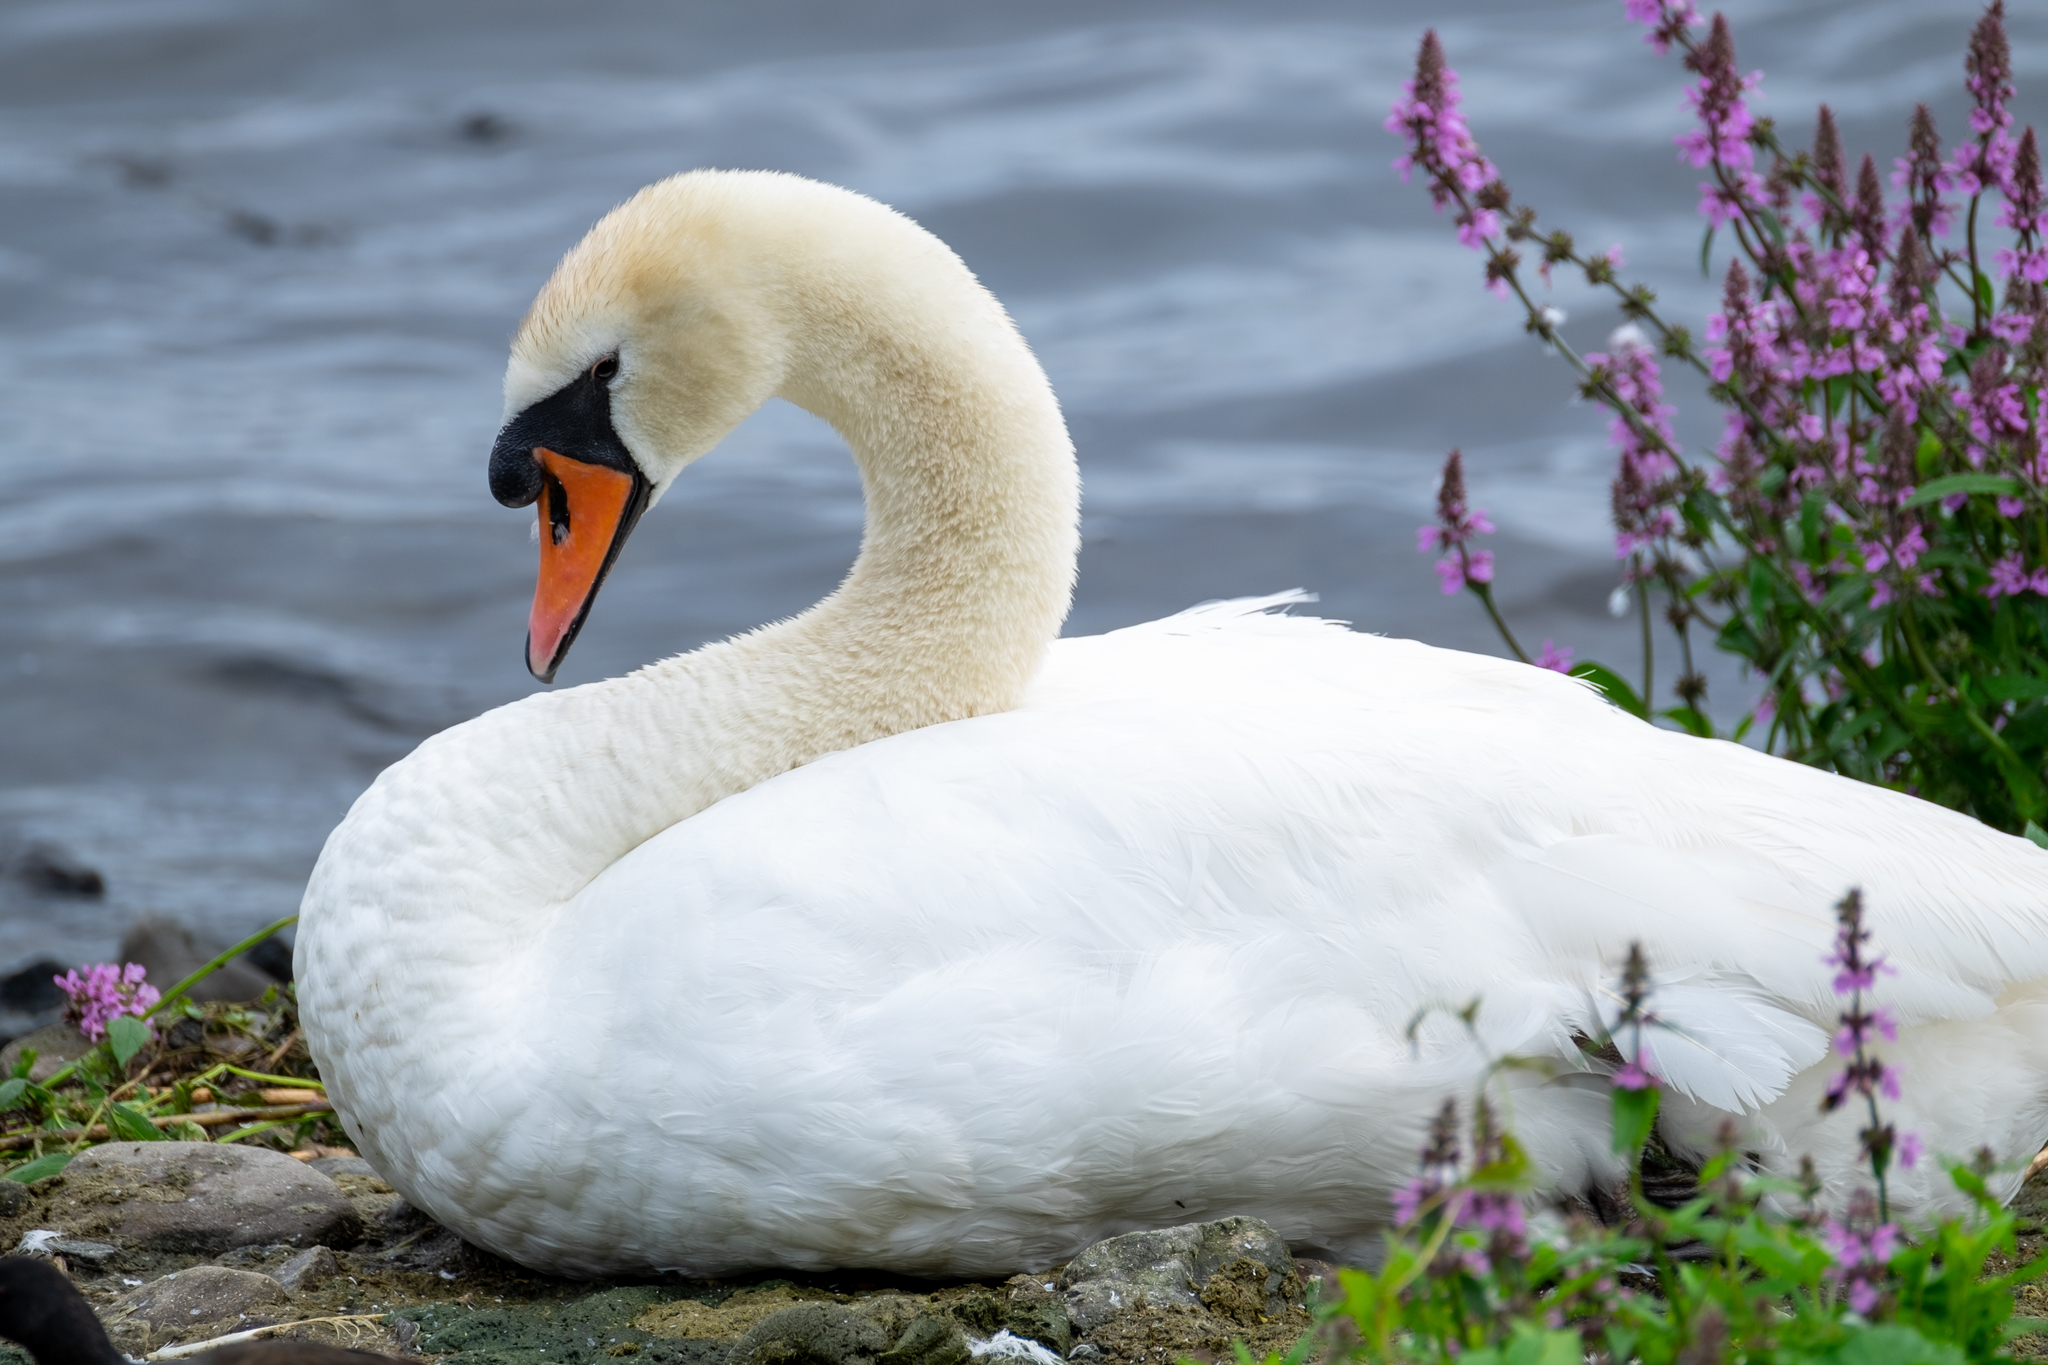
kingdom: Animalia
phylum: Chordata
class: Aves
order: Anseriformes
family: Anatidae
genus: Cygnus
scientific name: Cygnus olor
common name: Mute swan
